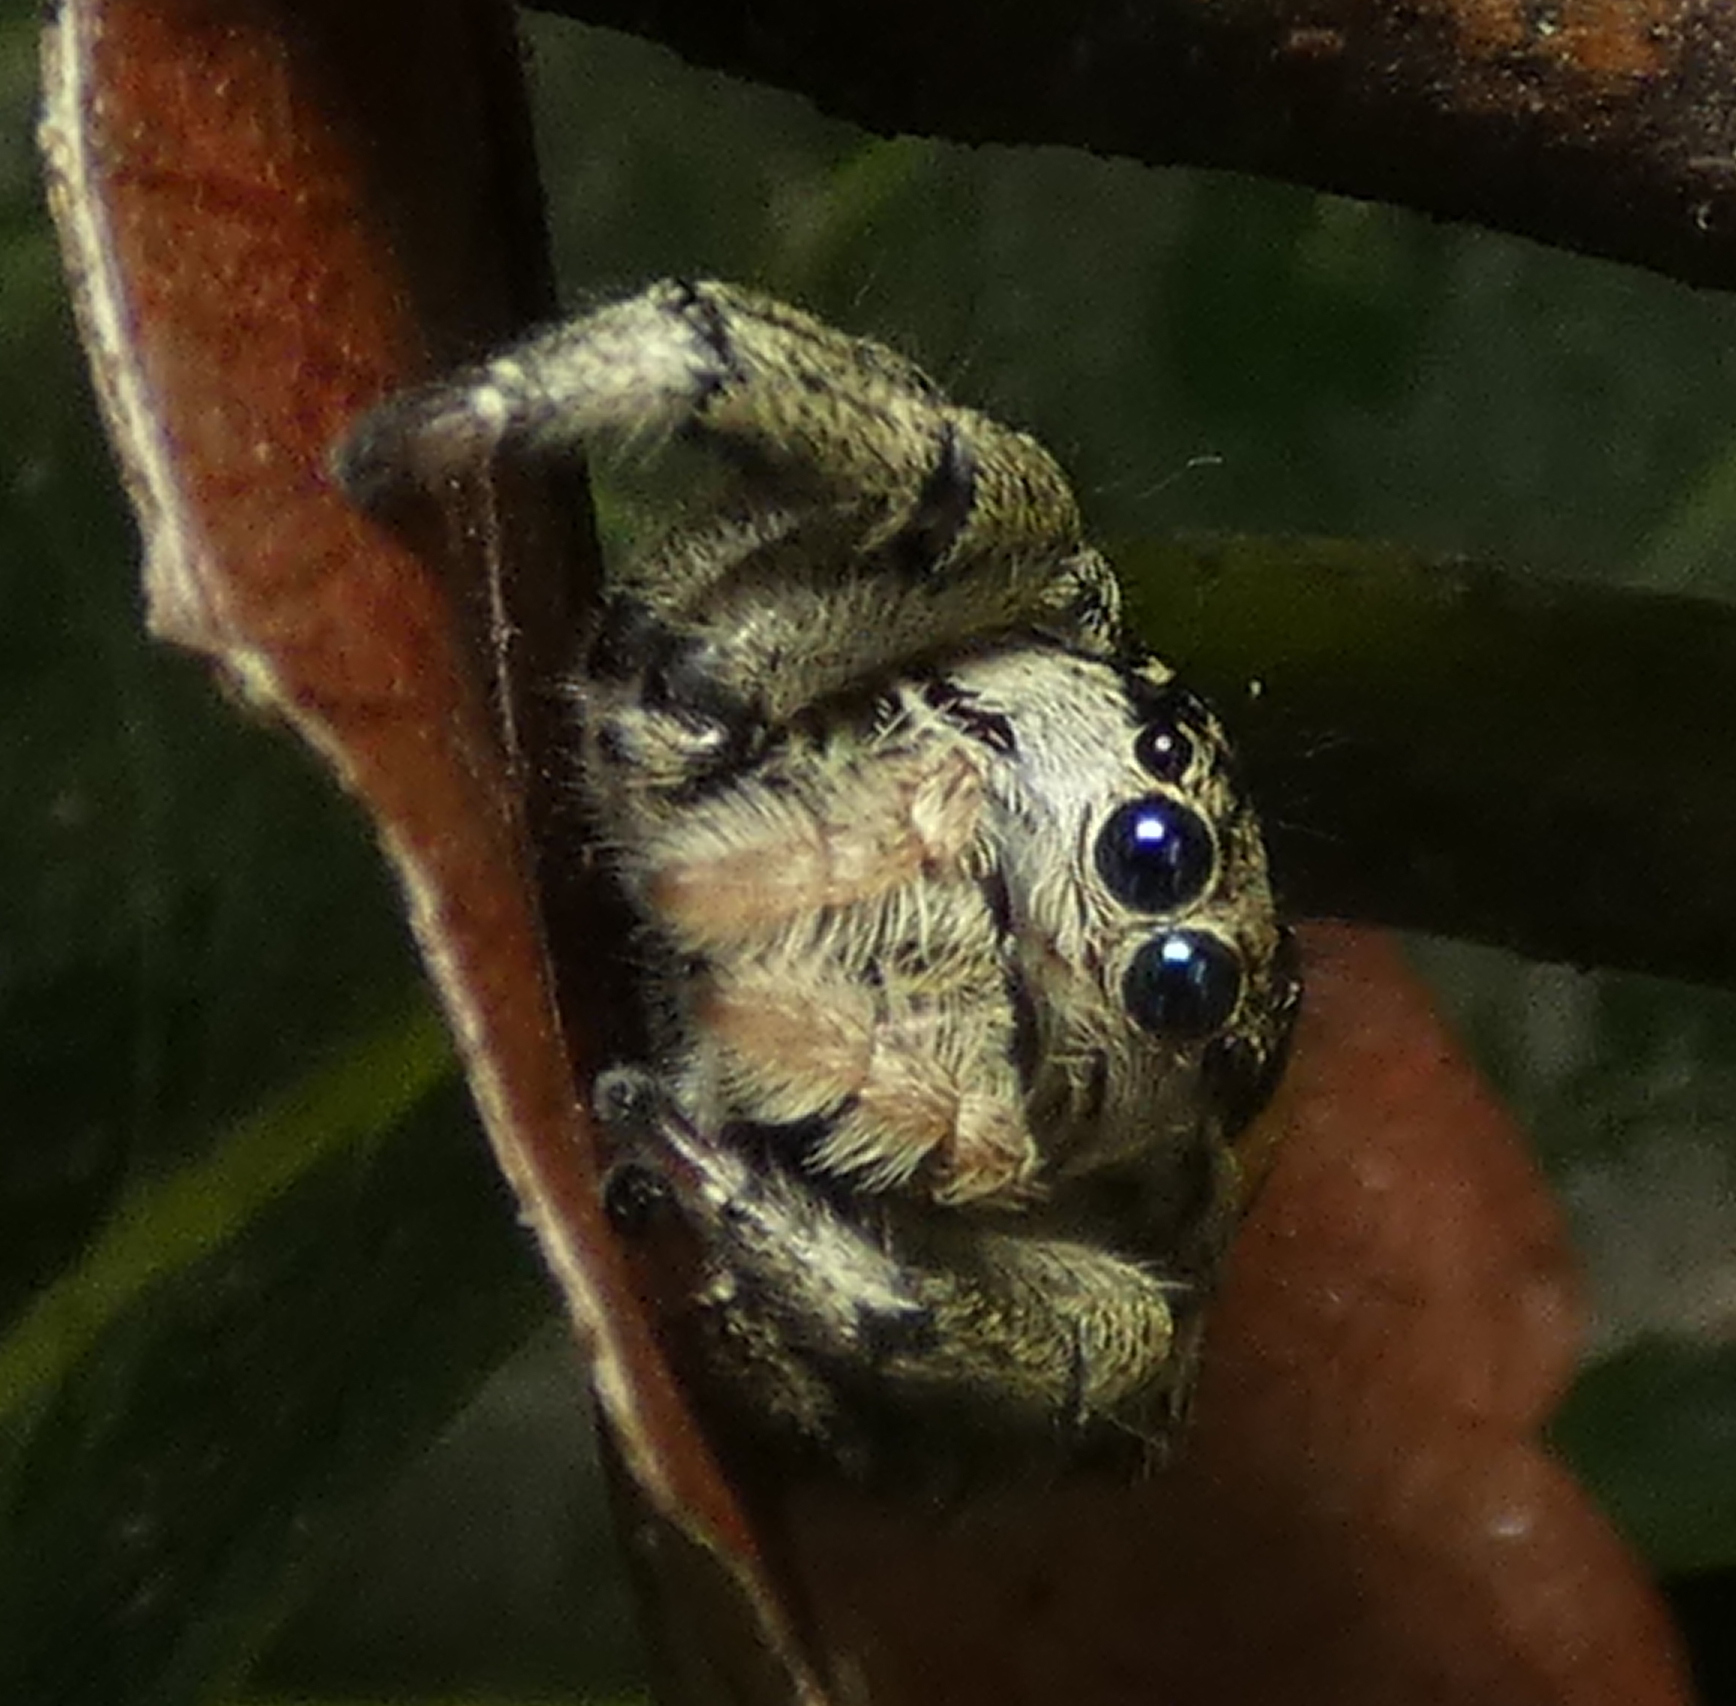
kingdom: Animalia
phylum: Arthropoda
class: Arachnida
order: Araneae
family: Salticidae
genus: Phiale
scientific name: Phiale gratiosa
